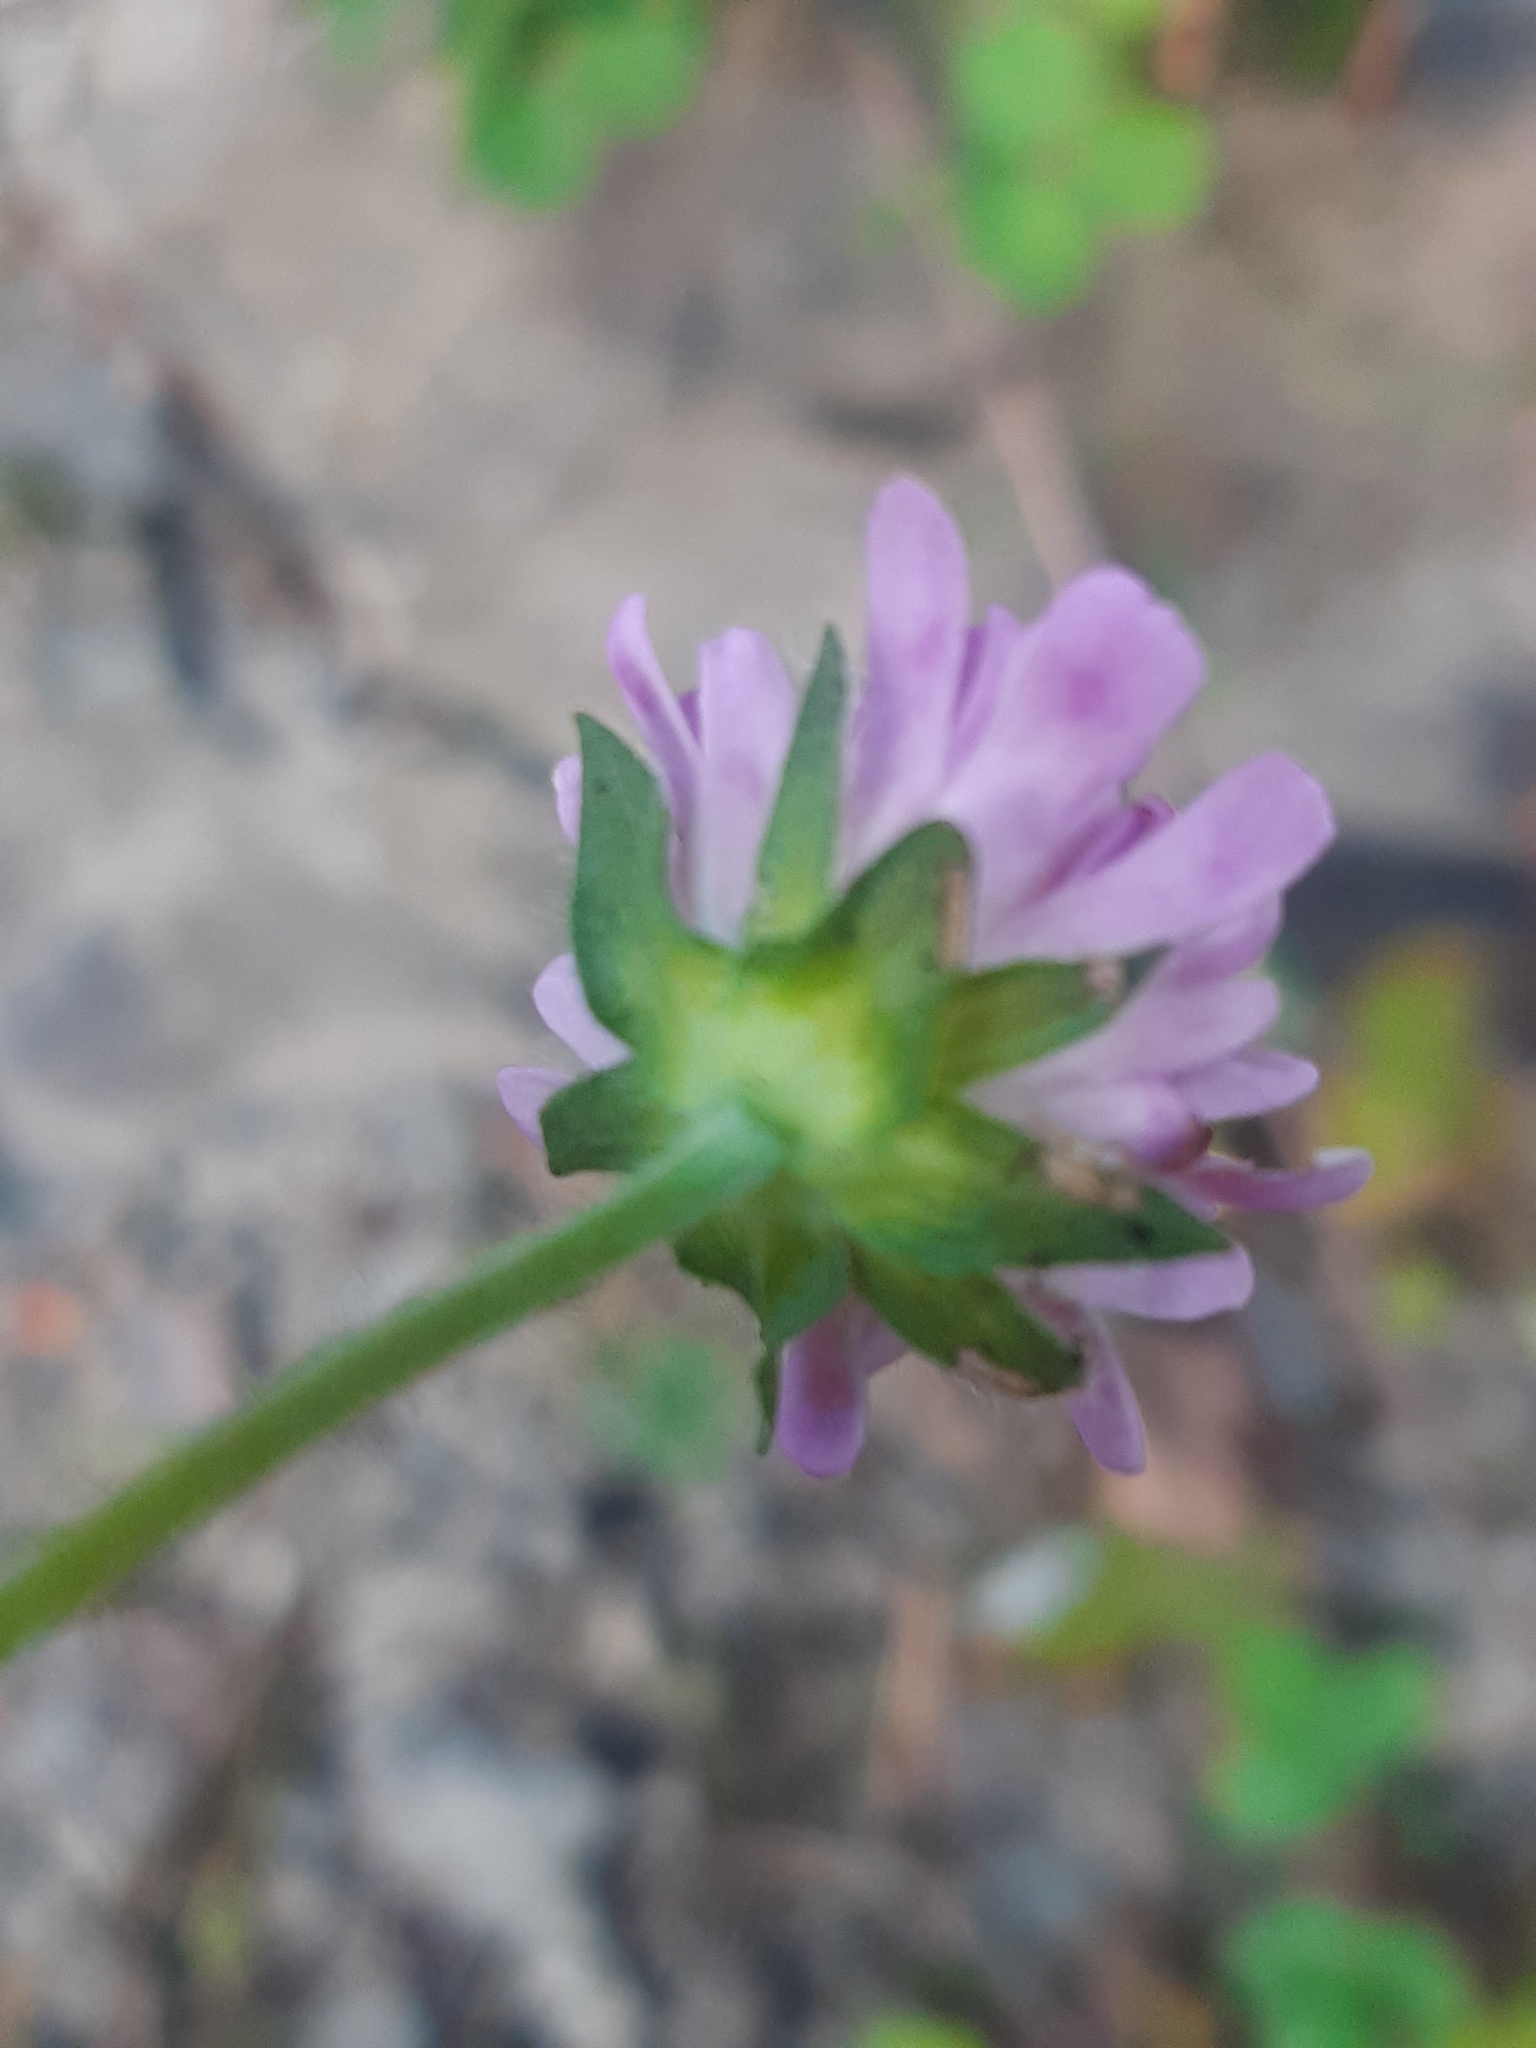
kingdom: Plantae
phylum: Tracheophyta
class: Magnoliopsida
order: Dipsacales
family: Caprifoliaceae
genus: Knautia
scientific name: Knautia arvensis
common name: Field scabiosa
